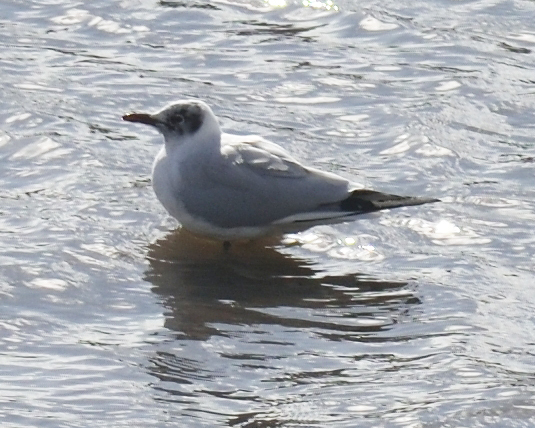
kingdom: Animalia
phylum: Chordata
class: Aves
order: Charadriiformes
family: Laridae
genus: Chroicocephalus
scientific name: Chroicocephalus ridibundus
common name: Black-headed gull
